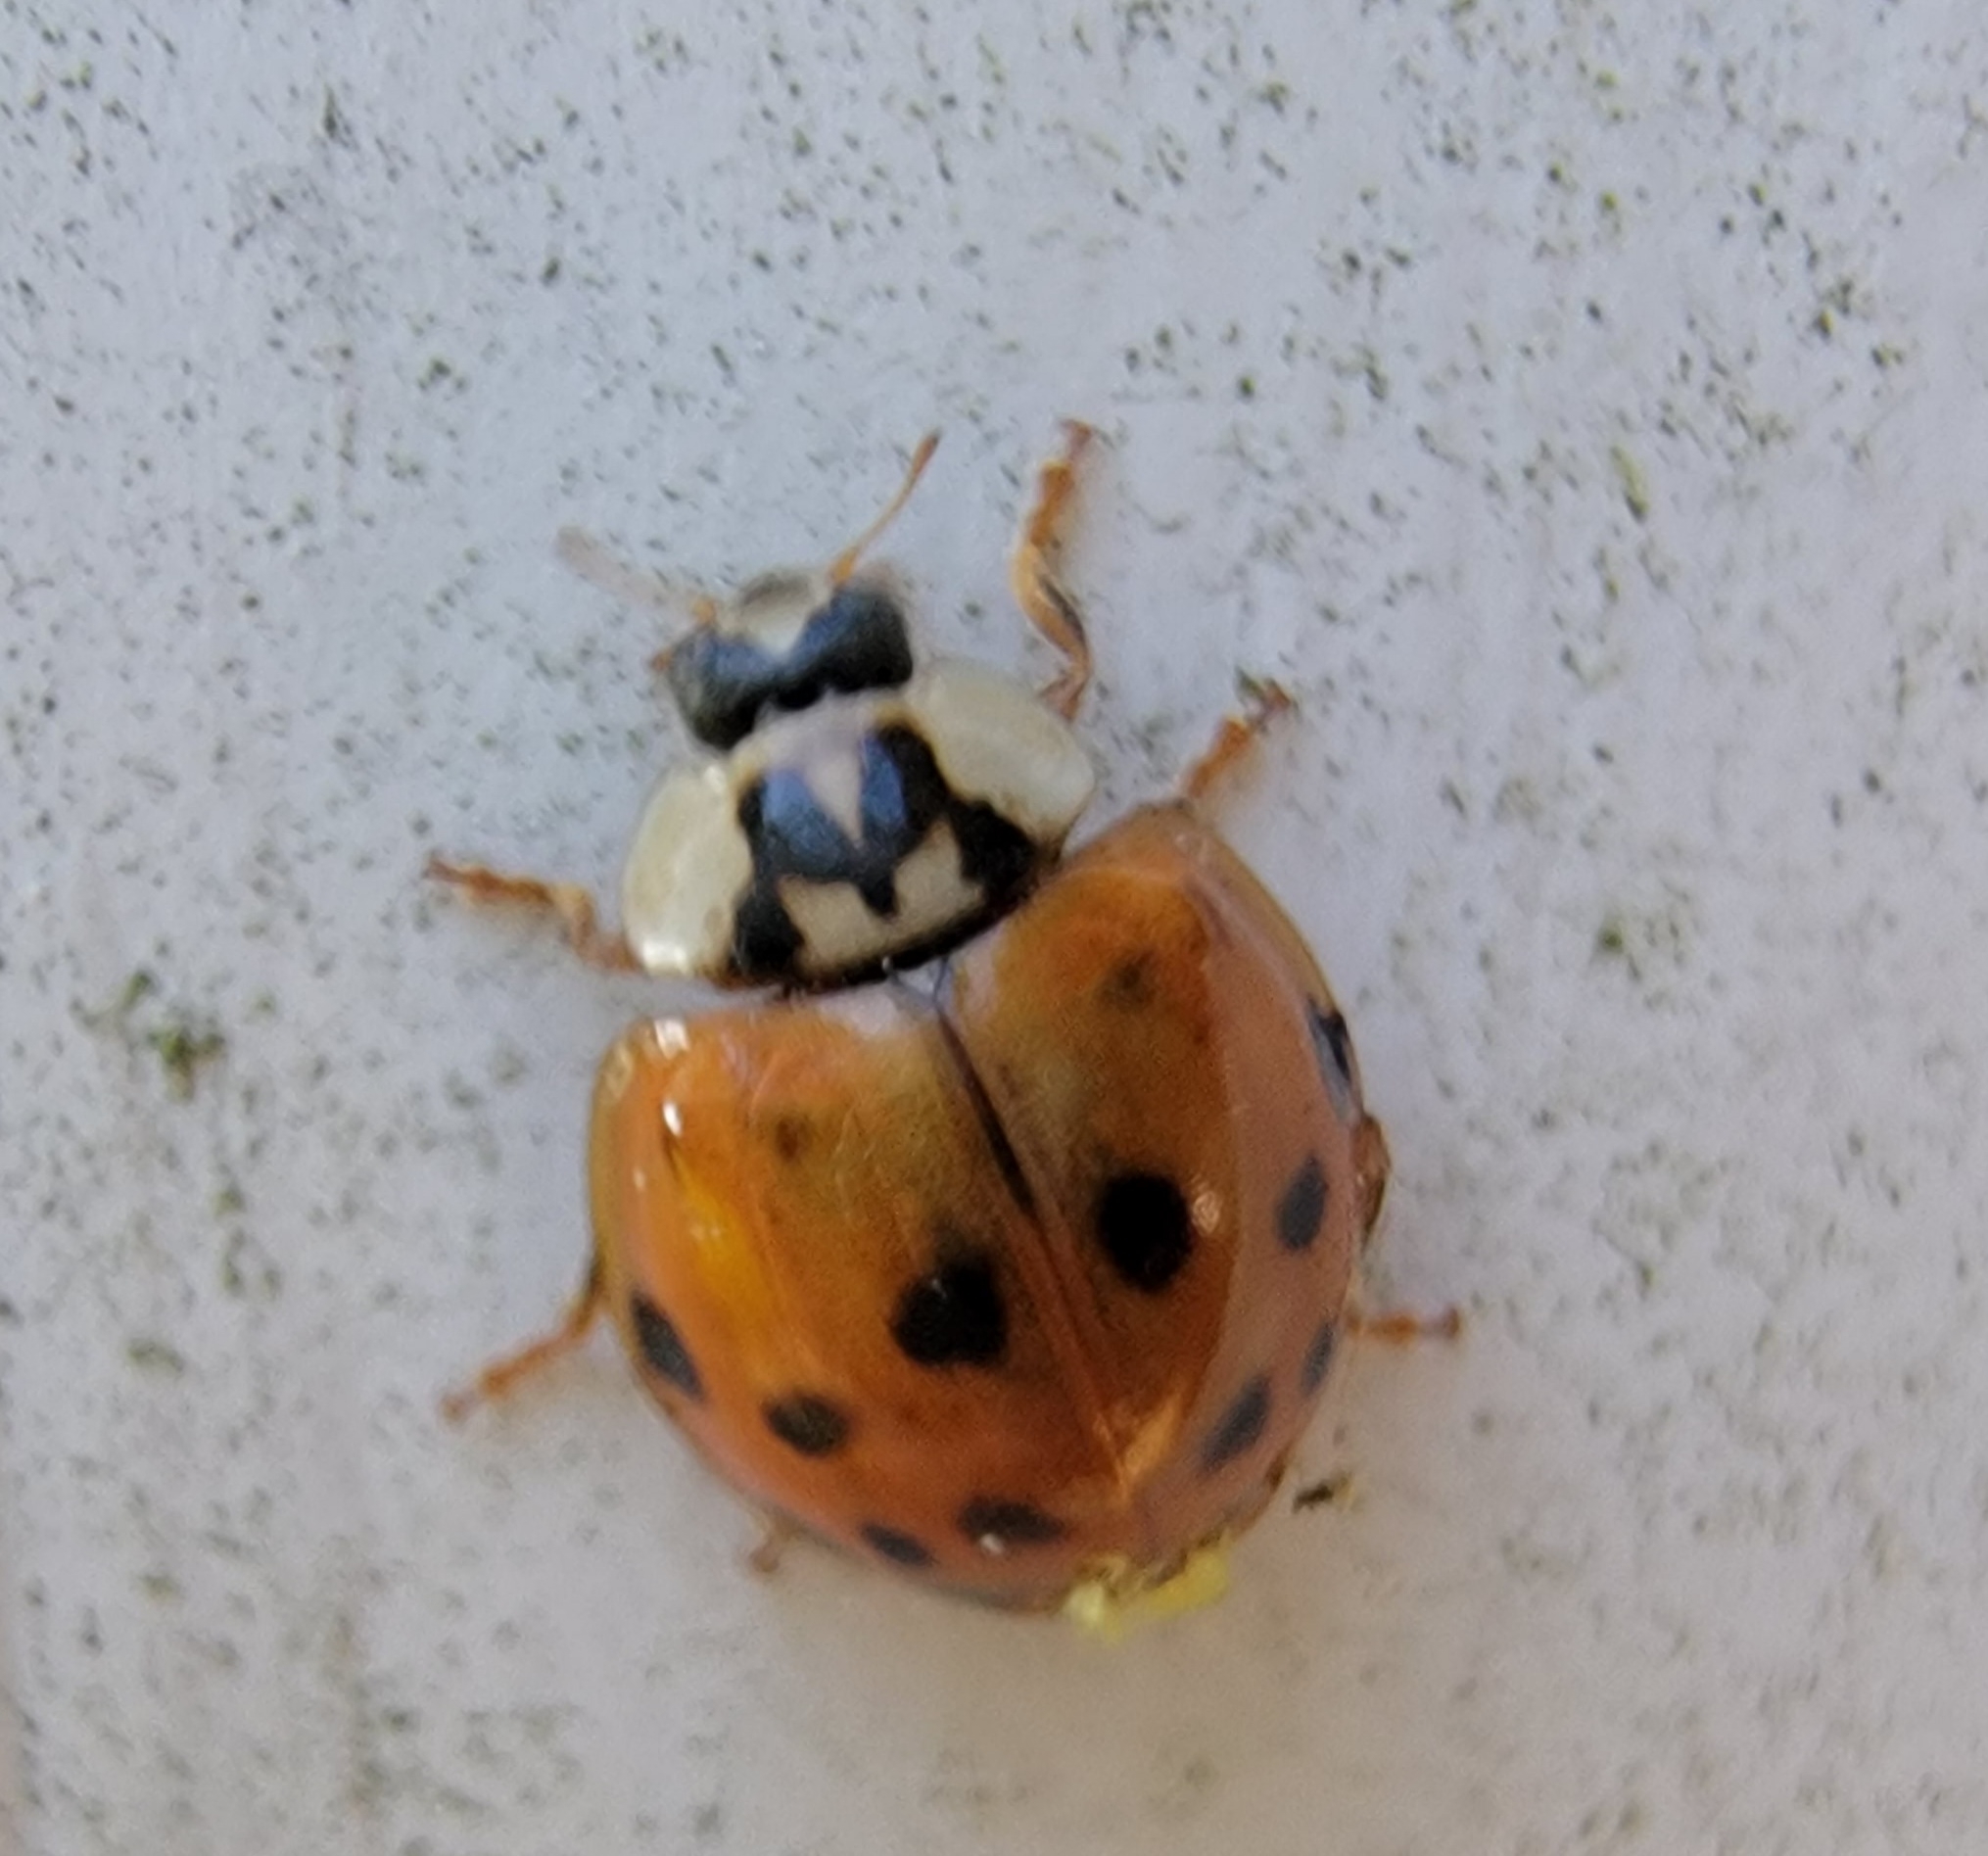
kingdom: Animalia
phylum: Arthropoda
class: Insecta
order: Coleoptera
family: Coccinellidae
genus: Harmonia
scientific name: Harmonia axyridis
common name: Harlequin ladybird
